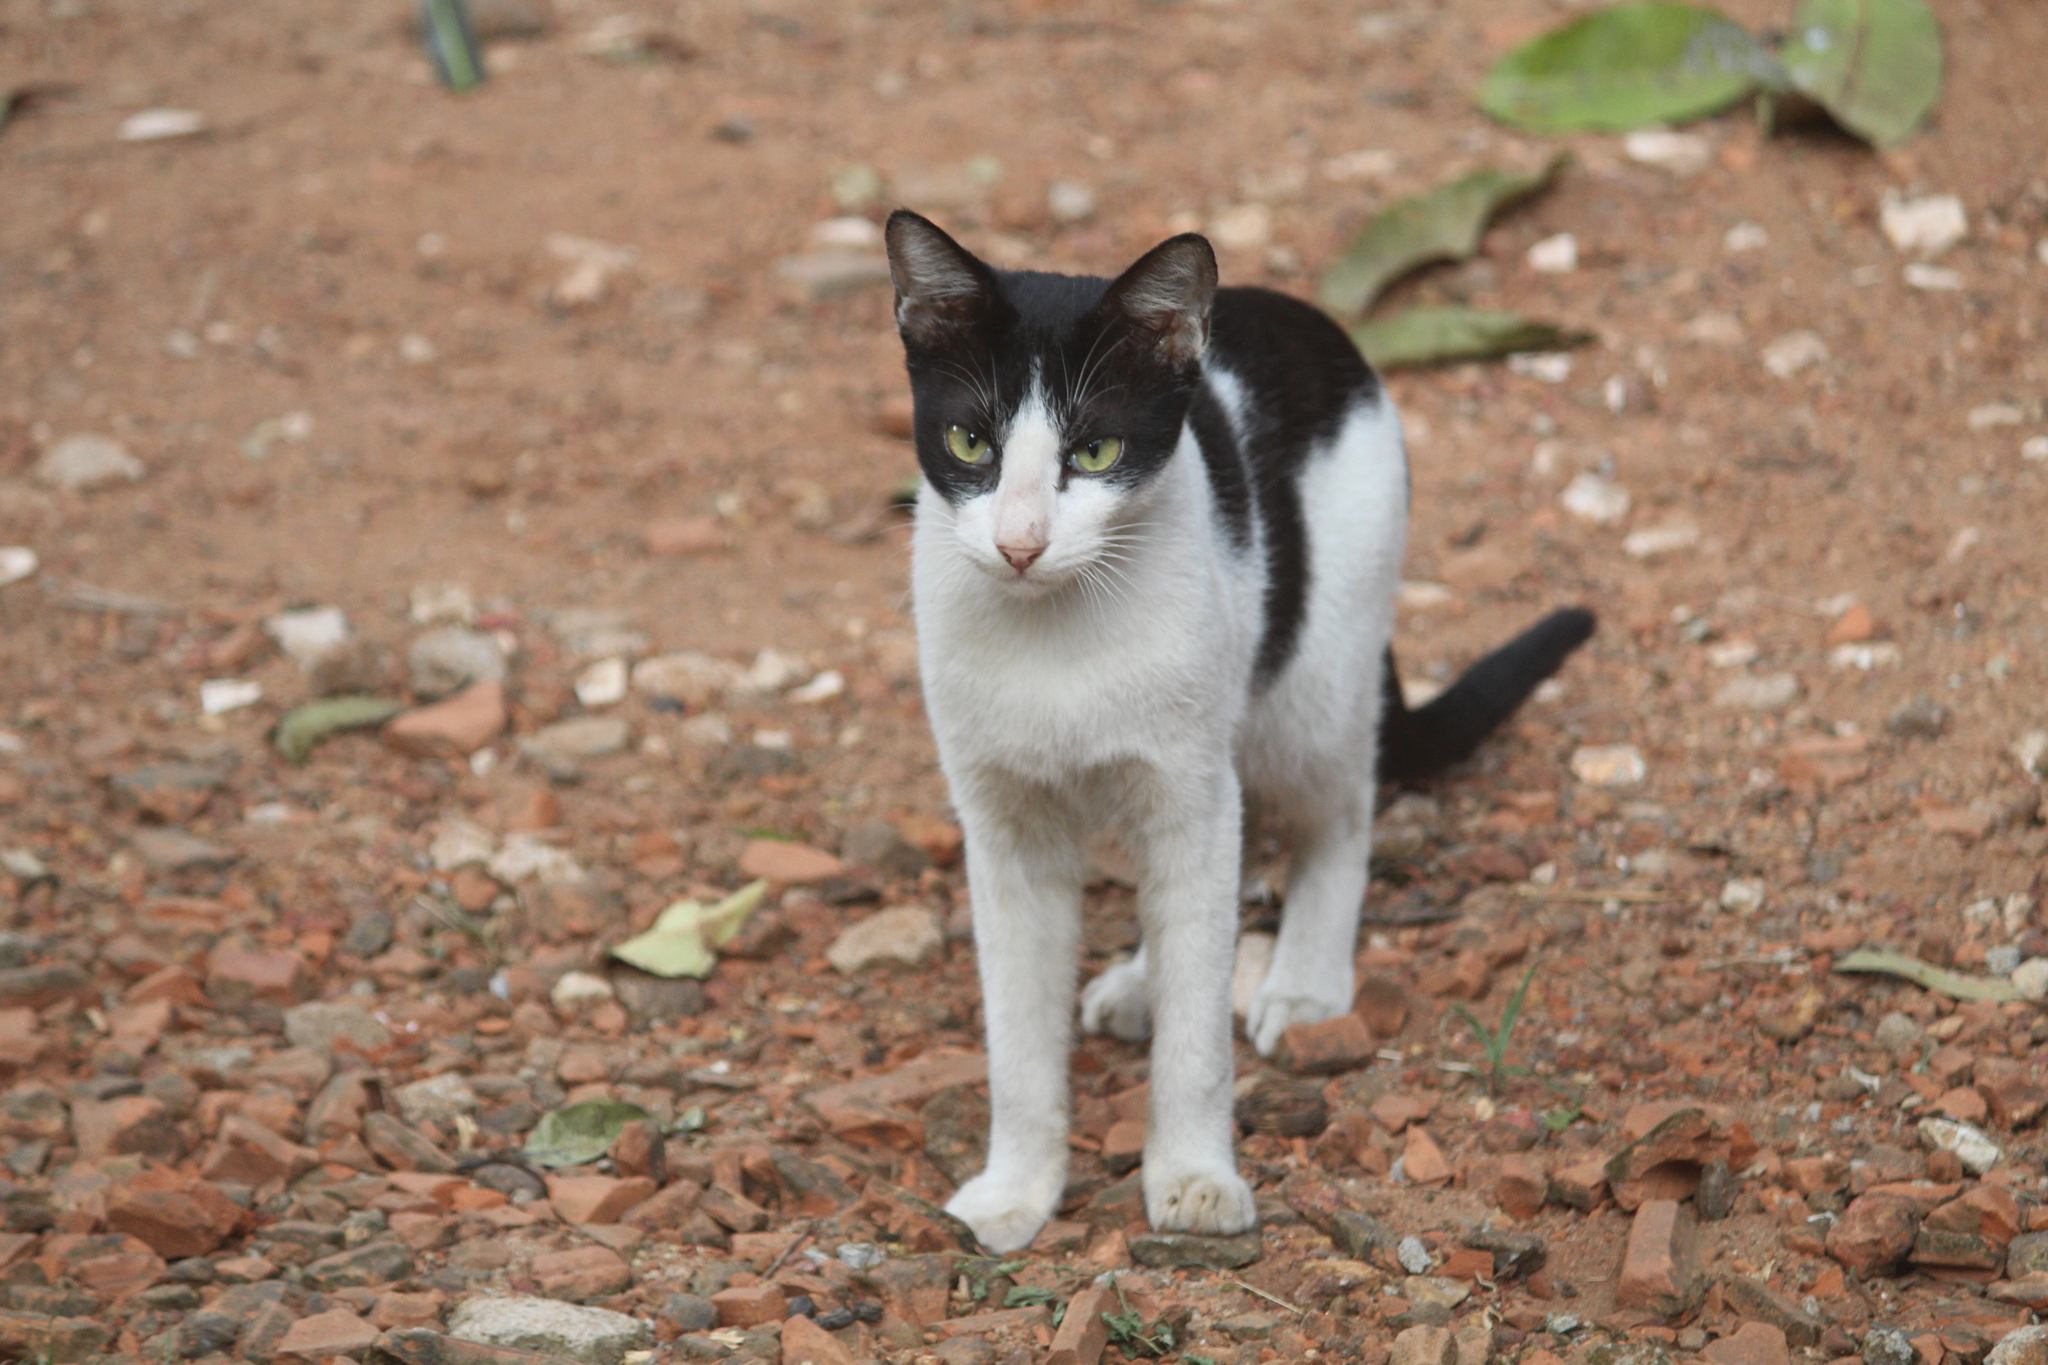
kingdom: Animalia
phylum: Chordata
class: Mammalia
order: Carnivora
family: Felidae
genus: Felis
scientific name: Felis catus
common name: Domestic cat
